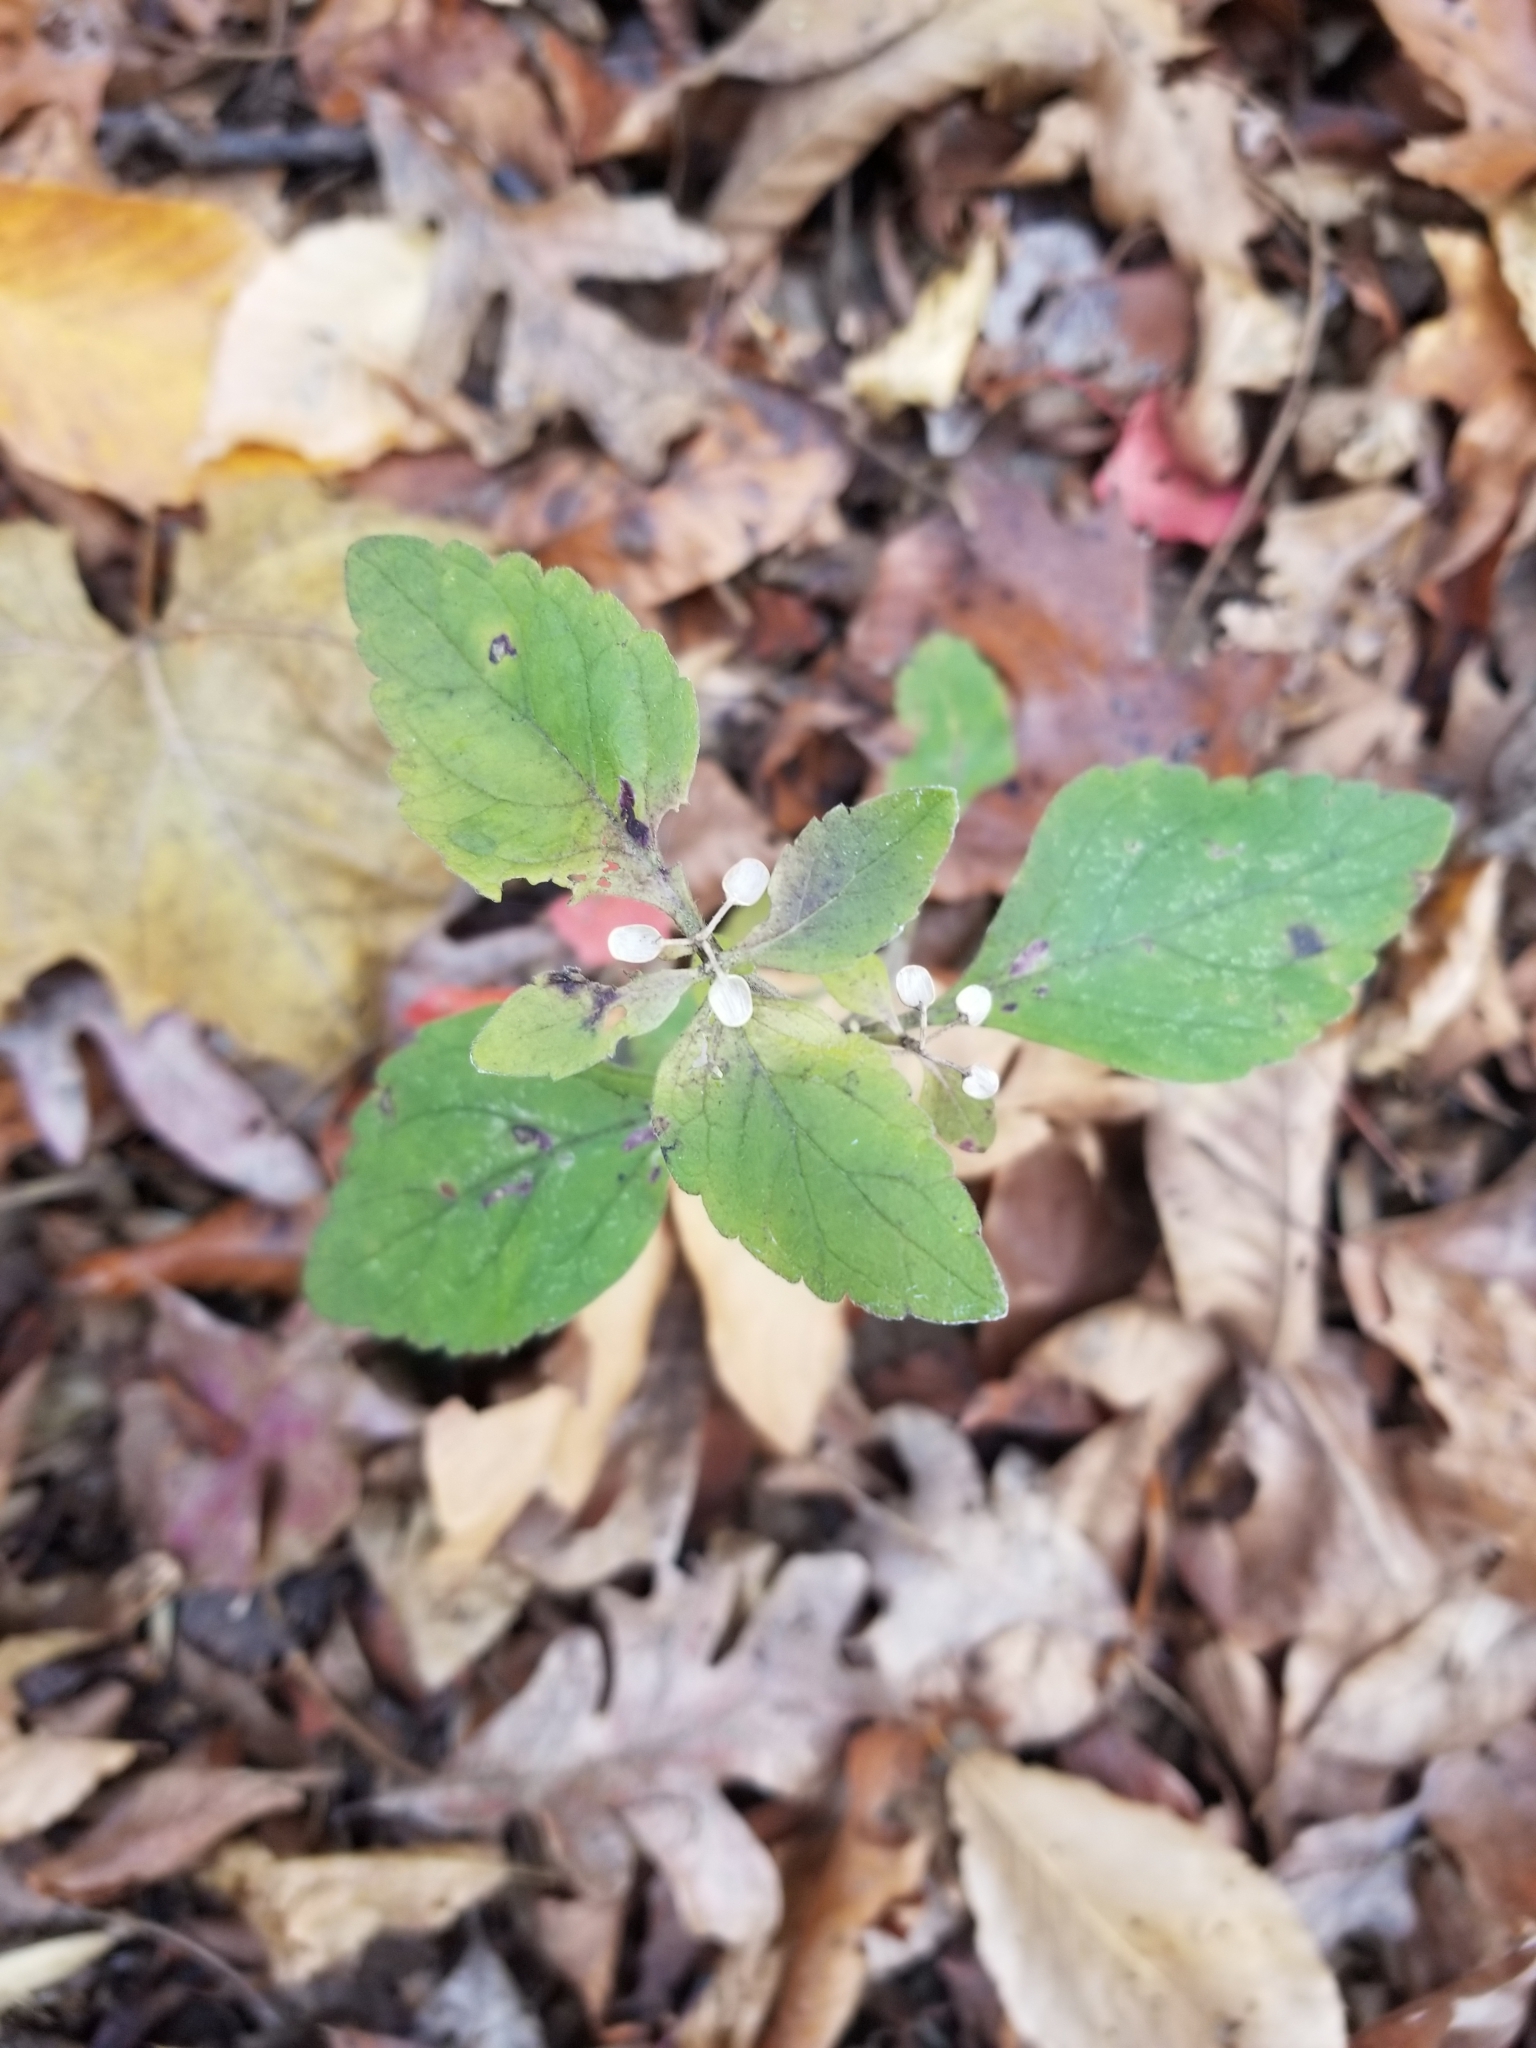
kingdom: Plantae
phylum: Tracheophyta
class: Magnoliopsida
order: Lamiales
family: Lamiaceae
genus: Scutellaria
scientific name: Scutellaria elliptica
